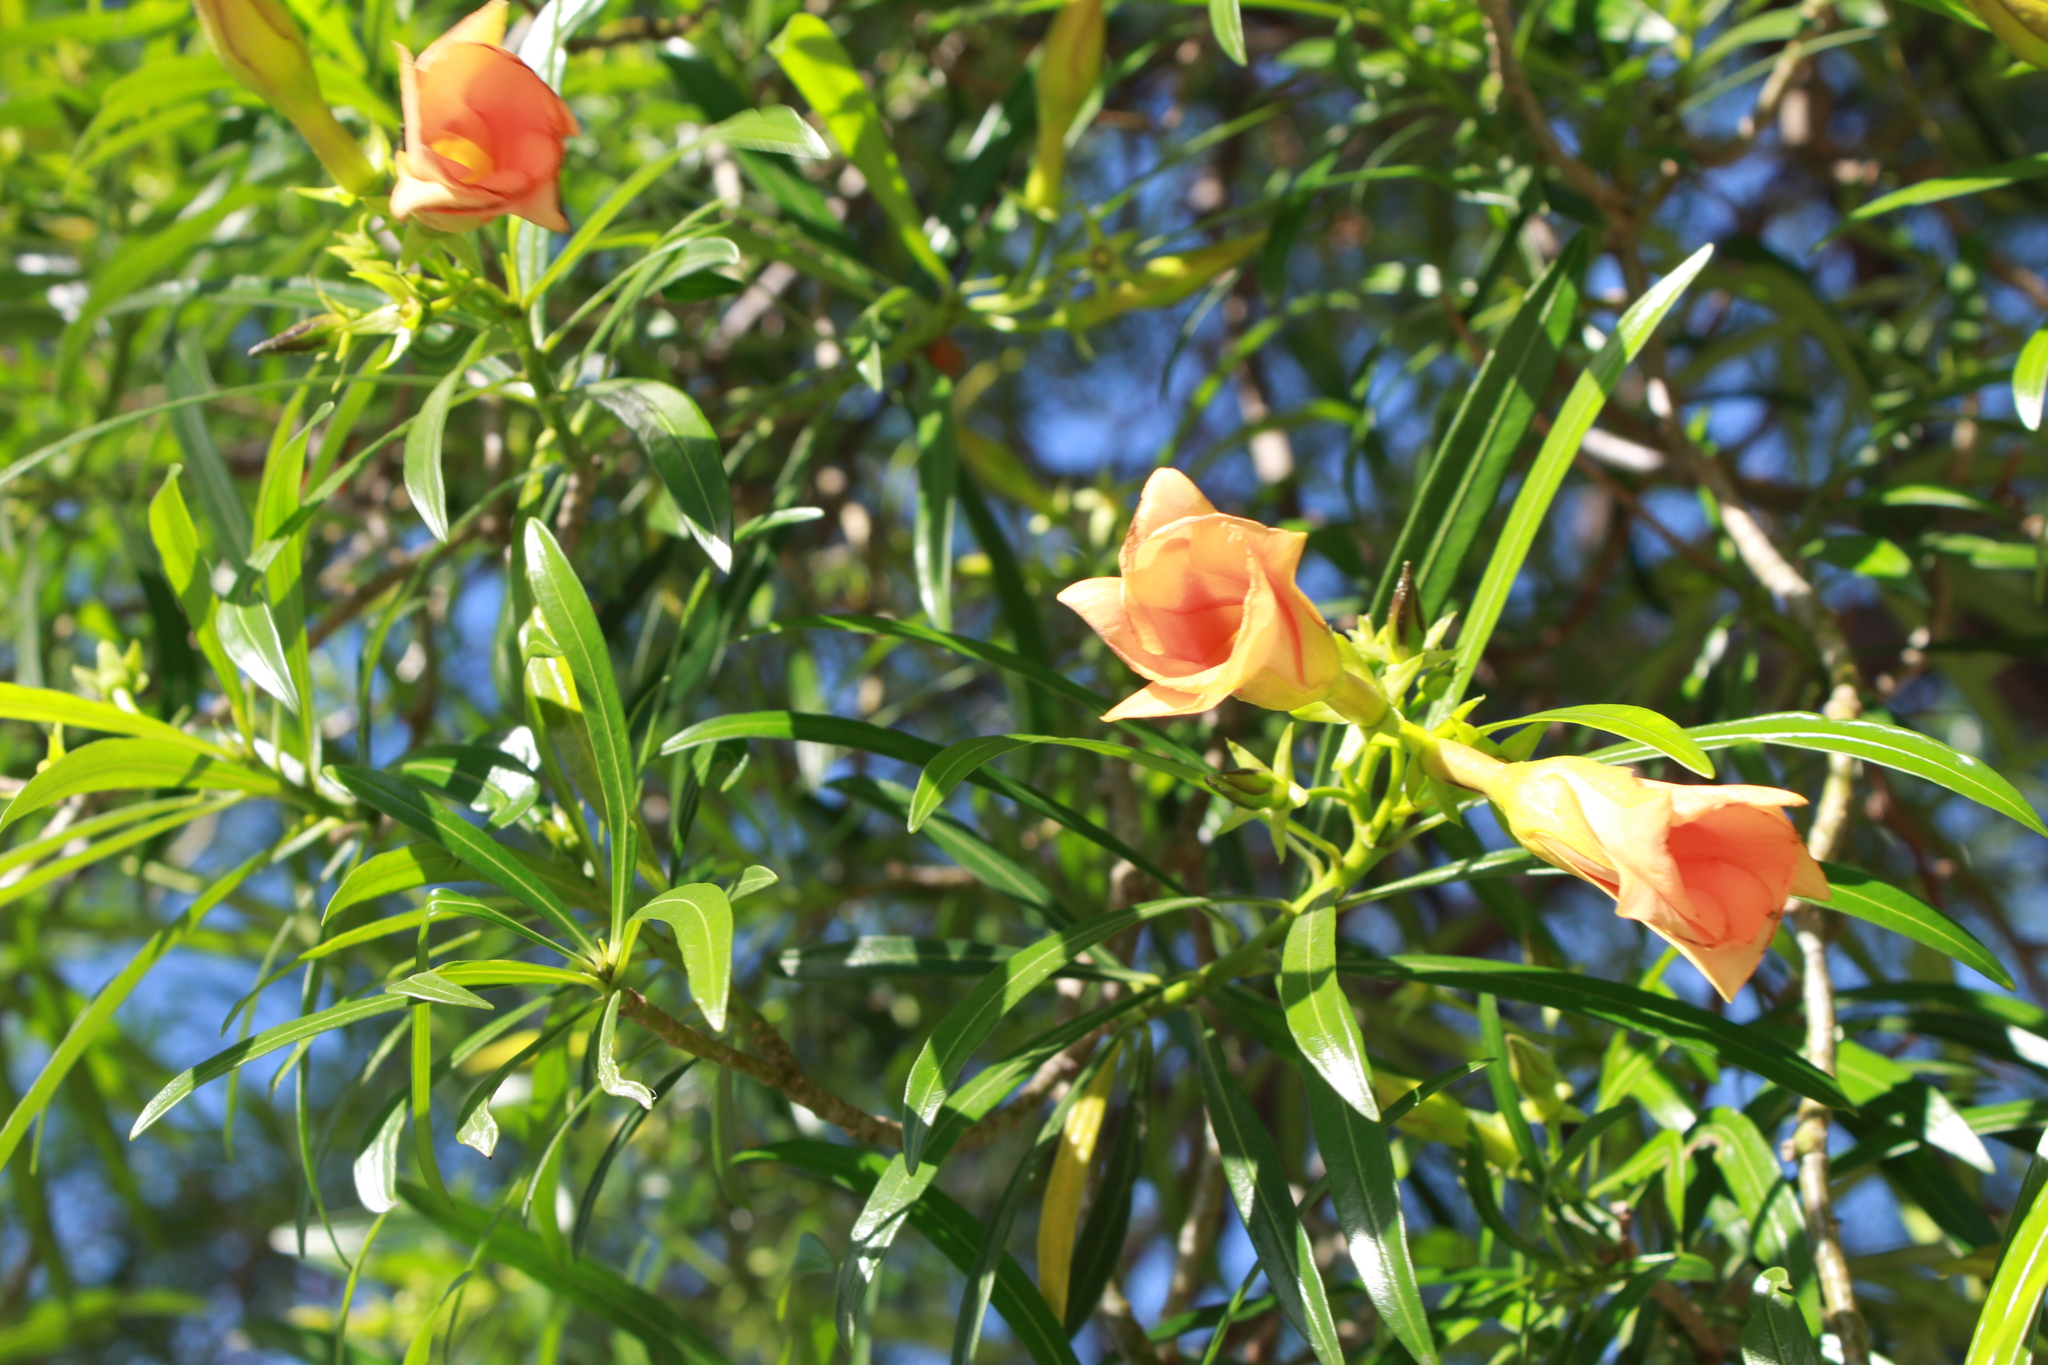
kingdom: Plantae
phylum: Tracheophyta
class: Magnoliopsida
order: Gentianales
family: Apocynaceae
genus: Cascabela
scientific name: Cascabela thevetia
